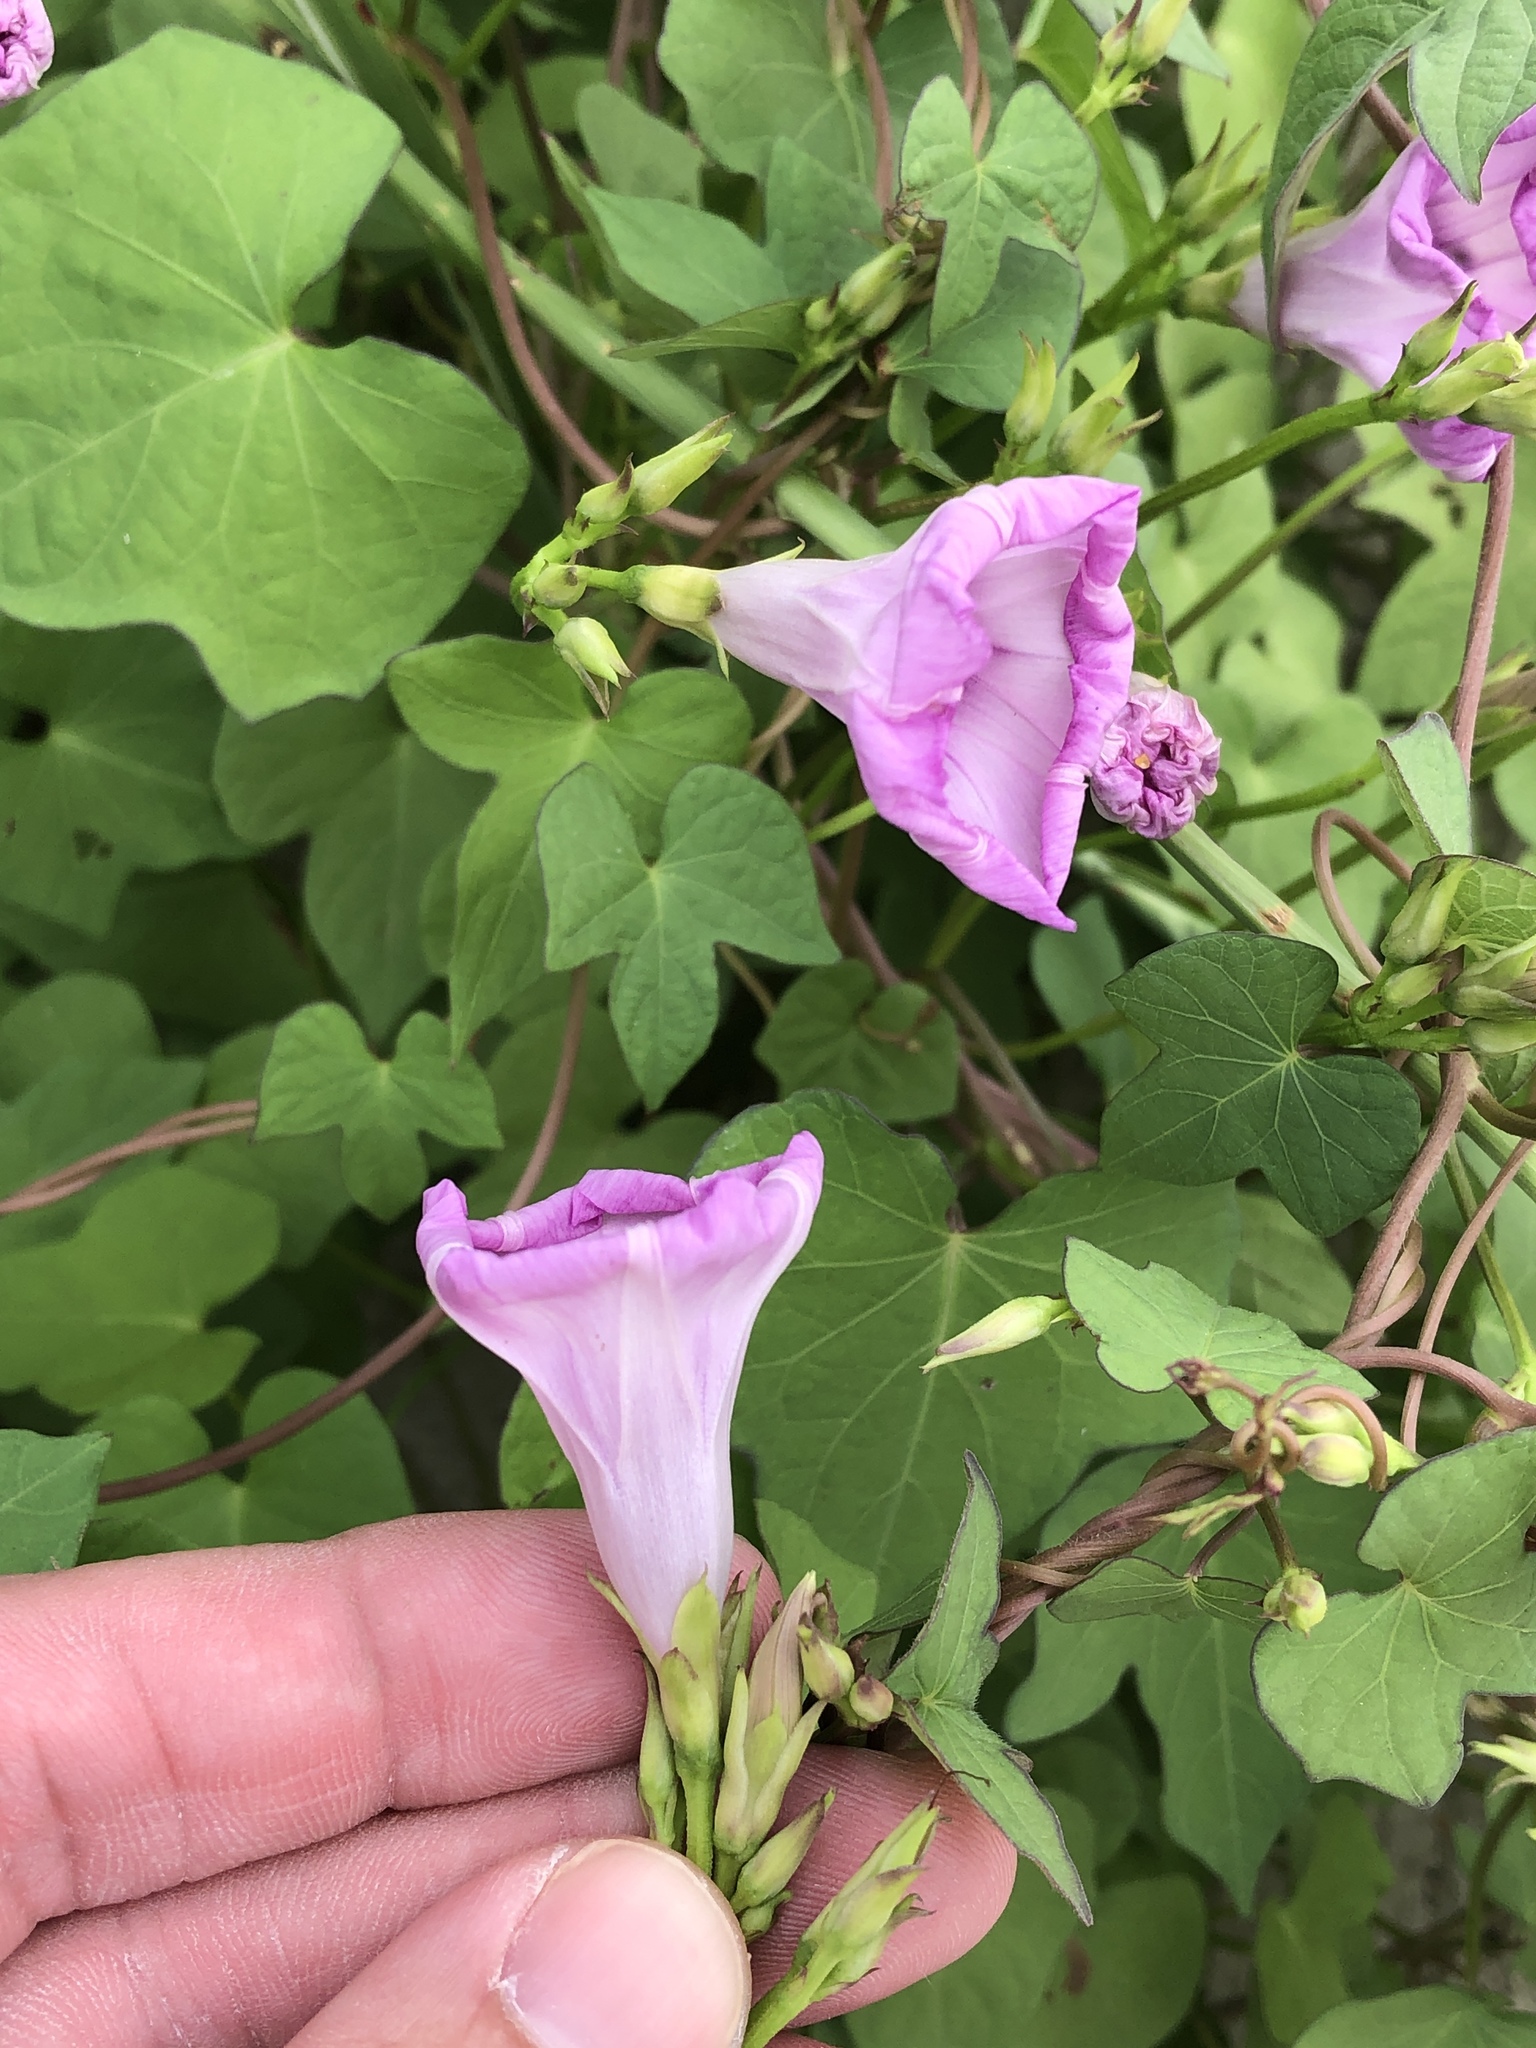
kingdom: Plantae
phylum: Tracheophyta
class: Magnoliopsida
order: Solanales
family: Convolvulaceae
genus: Ipomoea
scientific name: Ipomoea cordatotriloba
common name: Cotton morning glory
